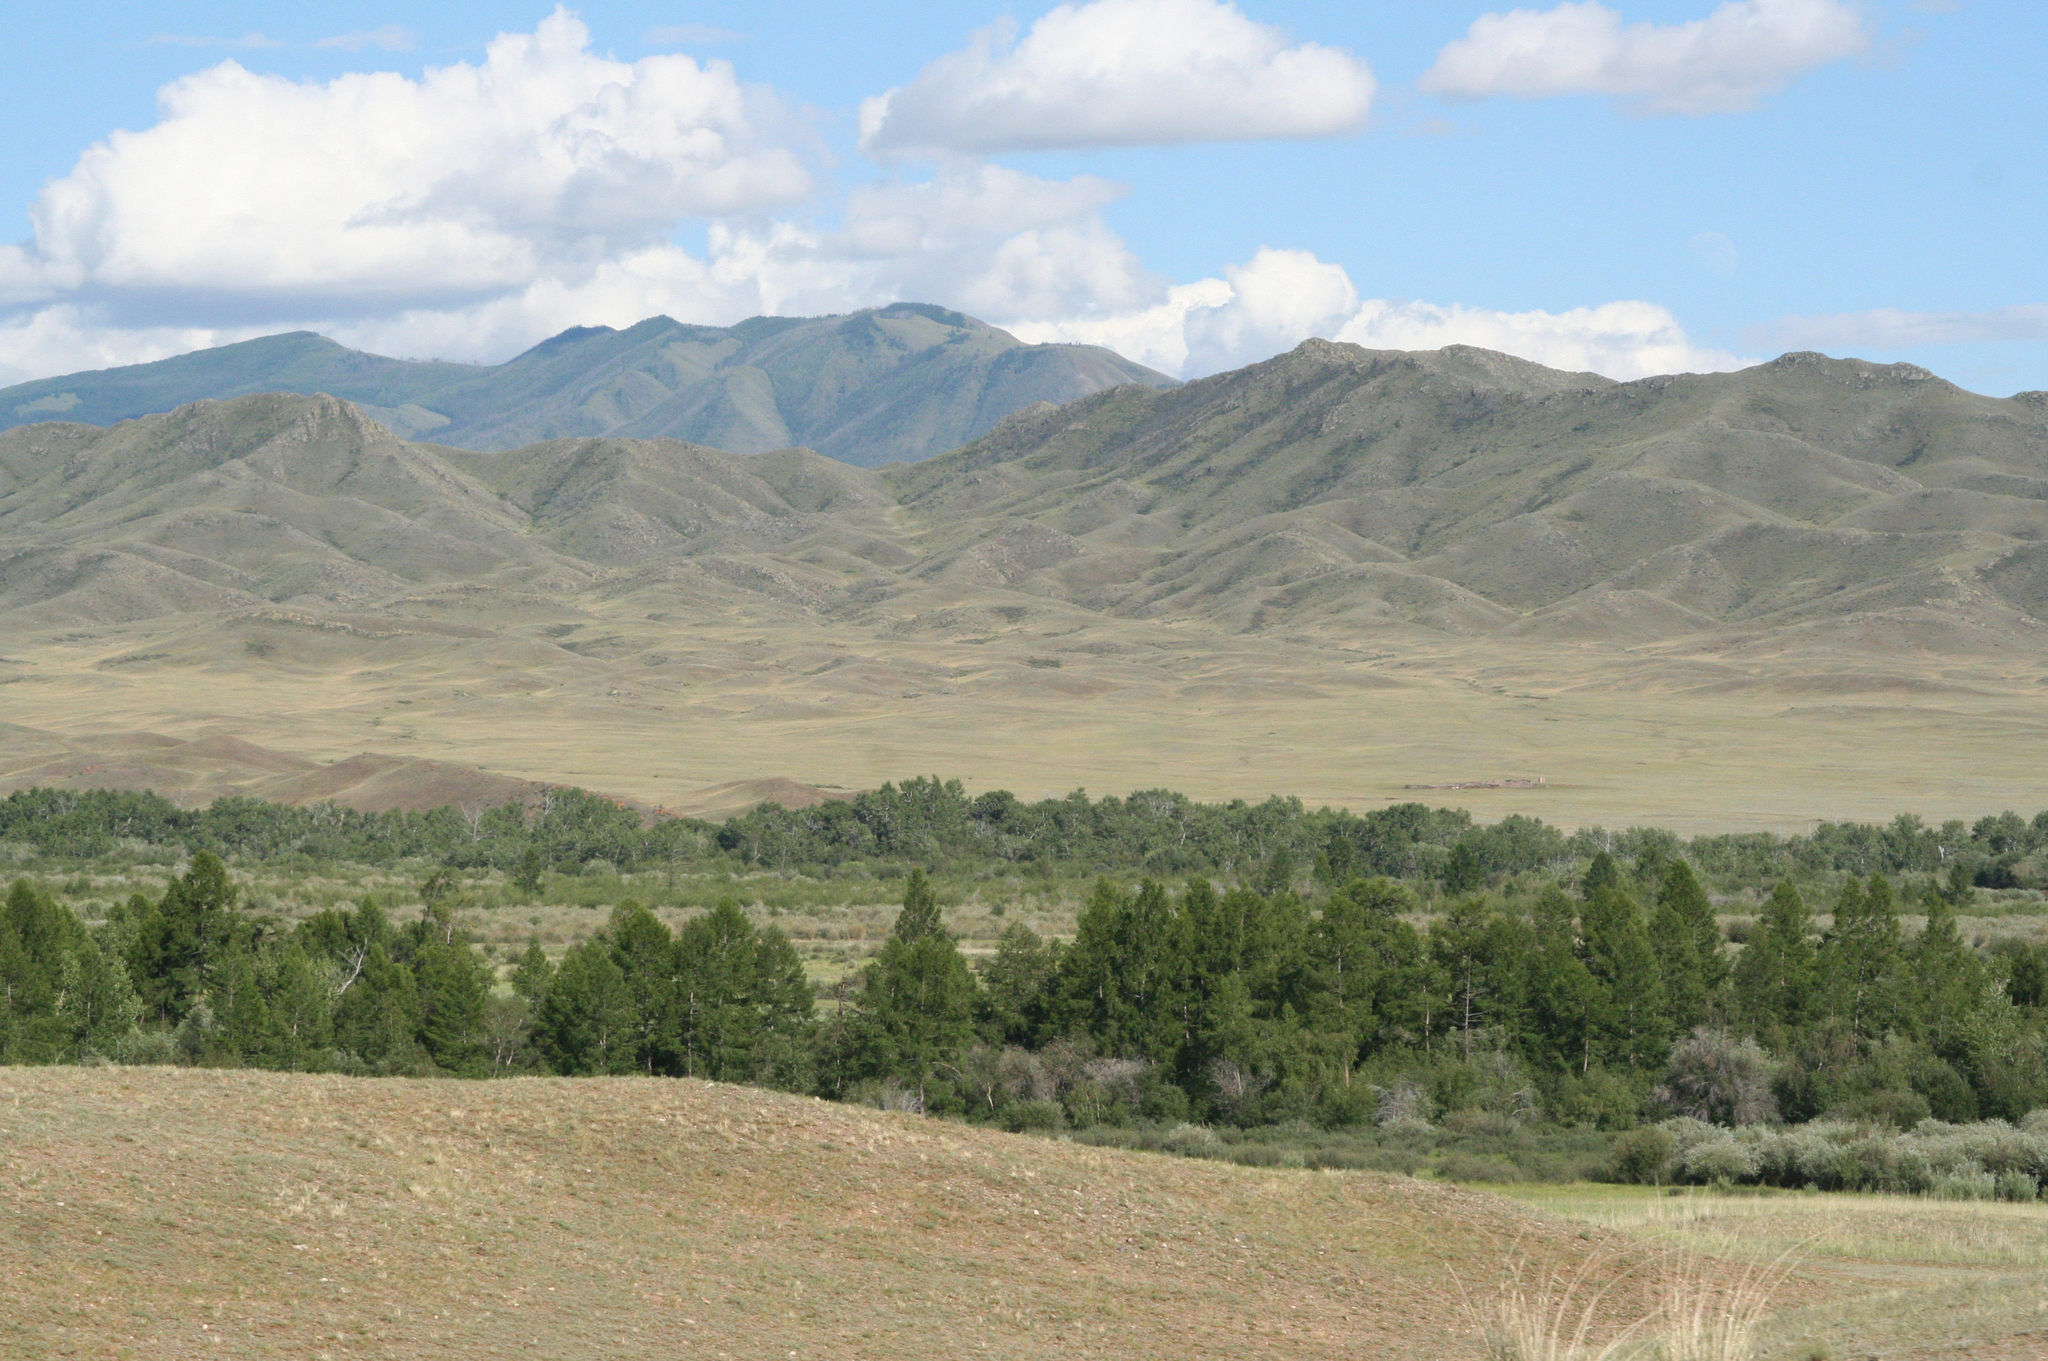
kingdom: Plantae
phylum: Tracheophyta
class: Pinopsida
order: Pinales
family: Pinaceae
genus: Larix
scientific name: Larix sibirica
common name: Siberian larch
